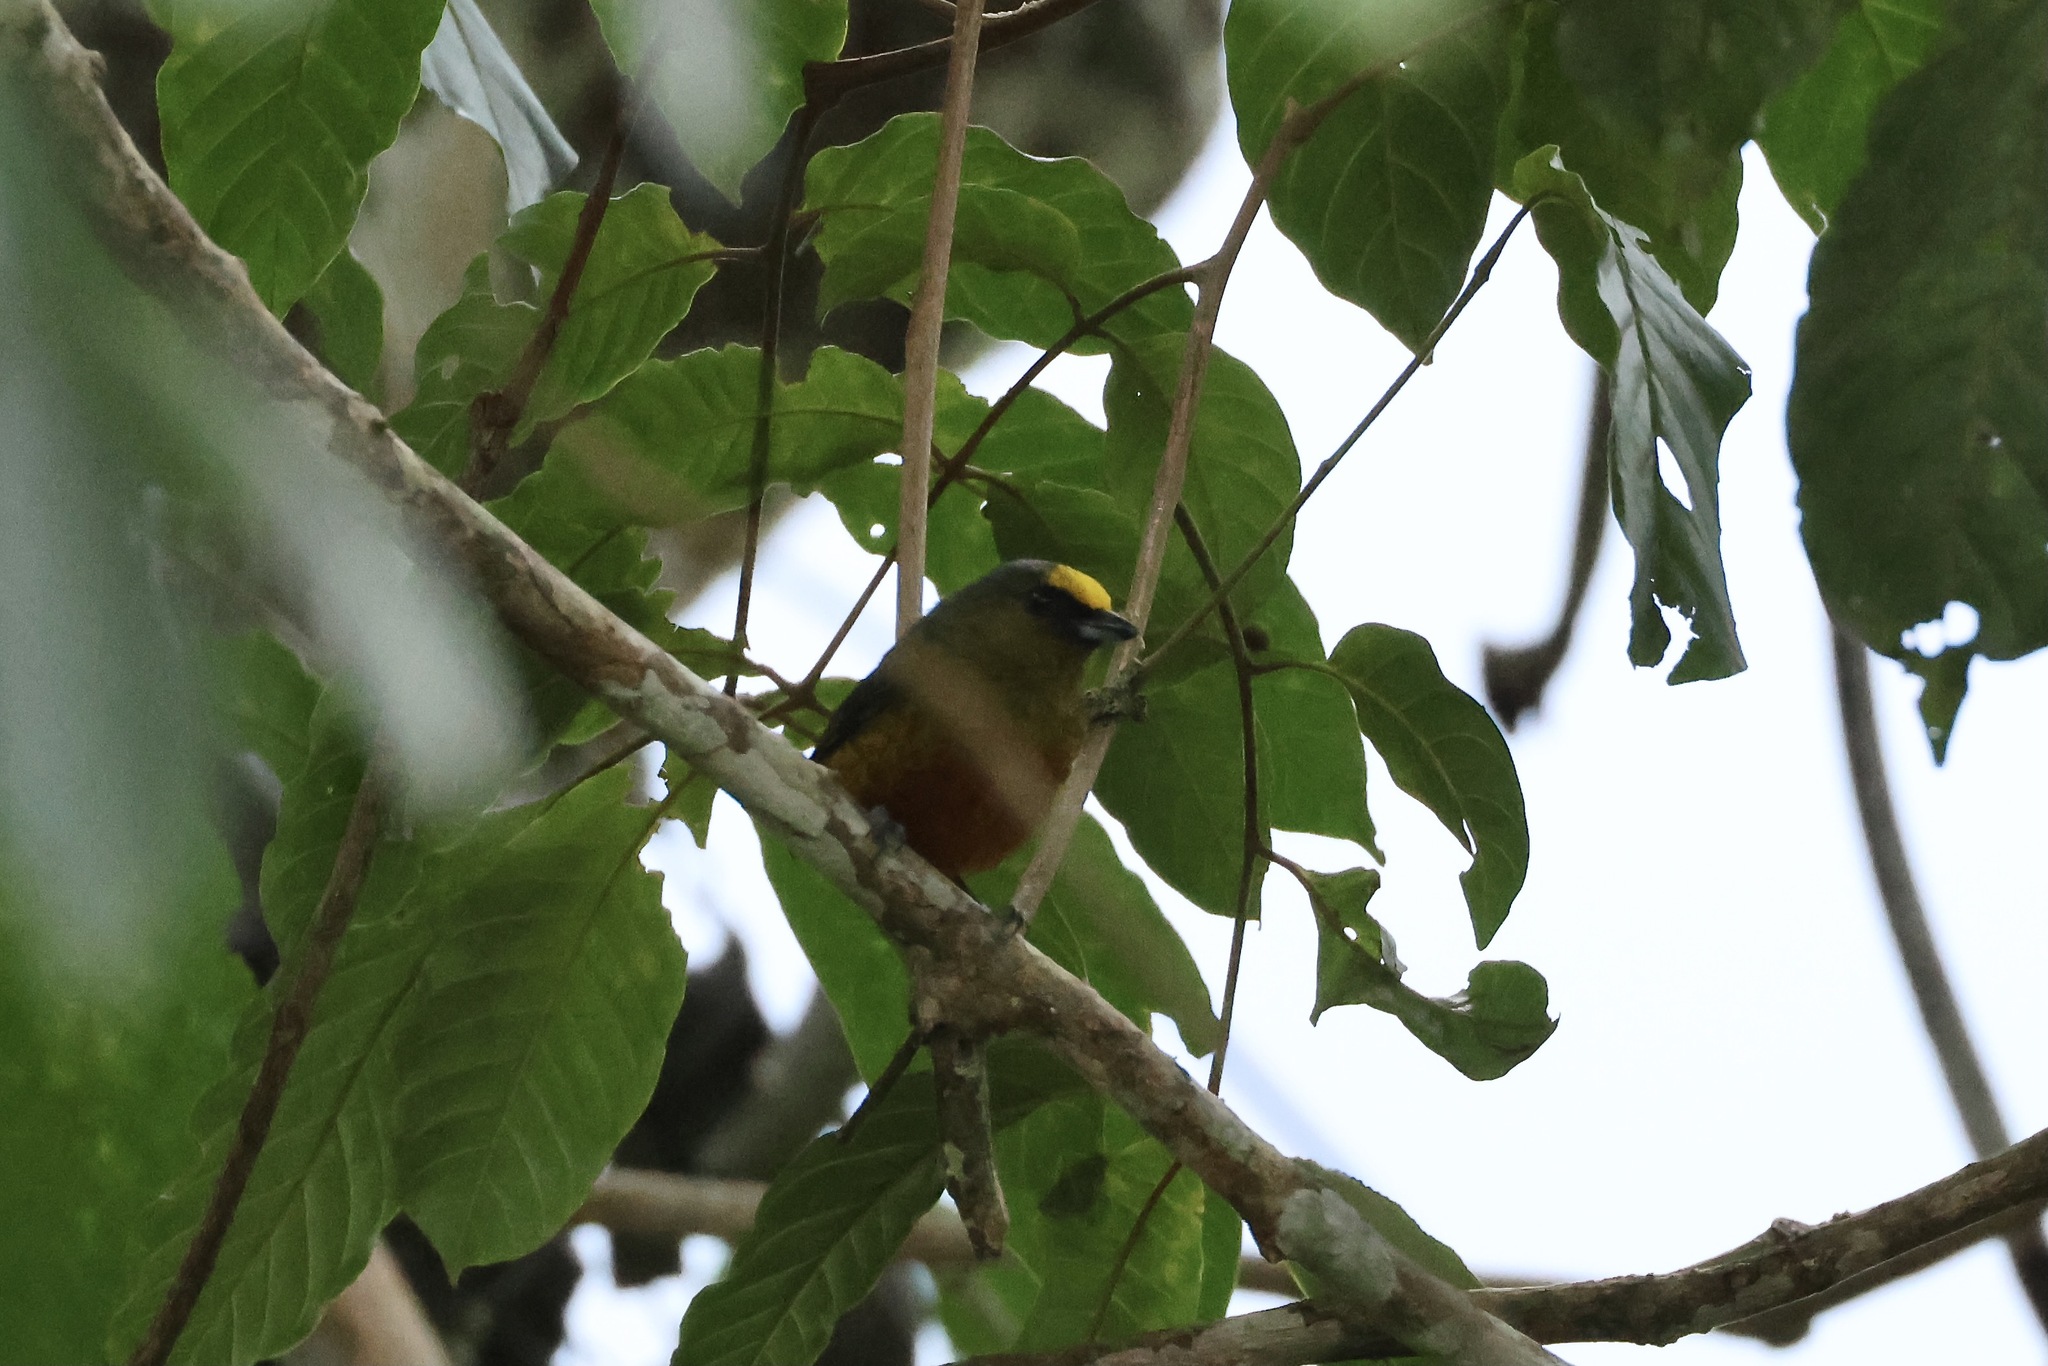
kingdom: Animalia
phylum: Chordata
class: Aves
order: Passeriformes
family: Fringillidae
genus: Euphonia
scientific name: Euphonia gouldi
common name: Olive-backed euphonia
